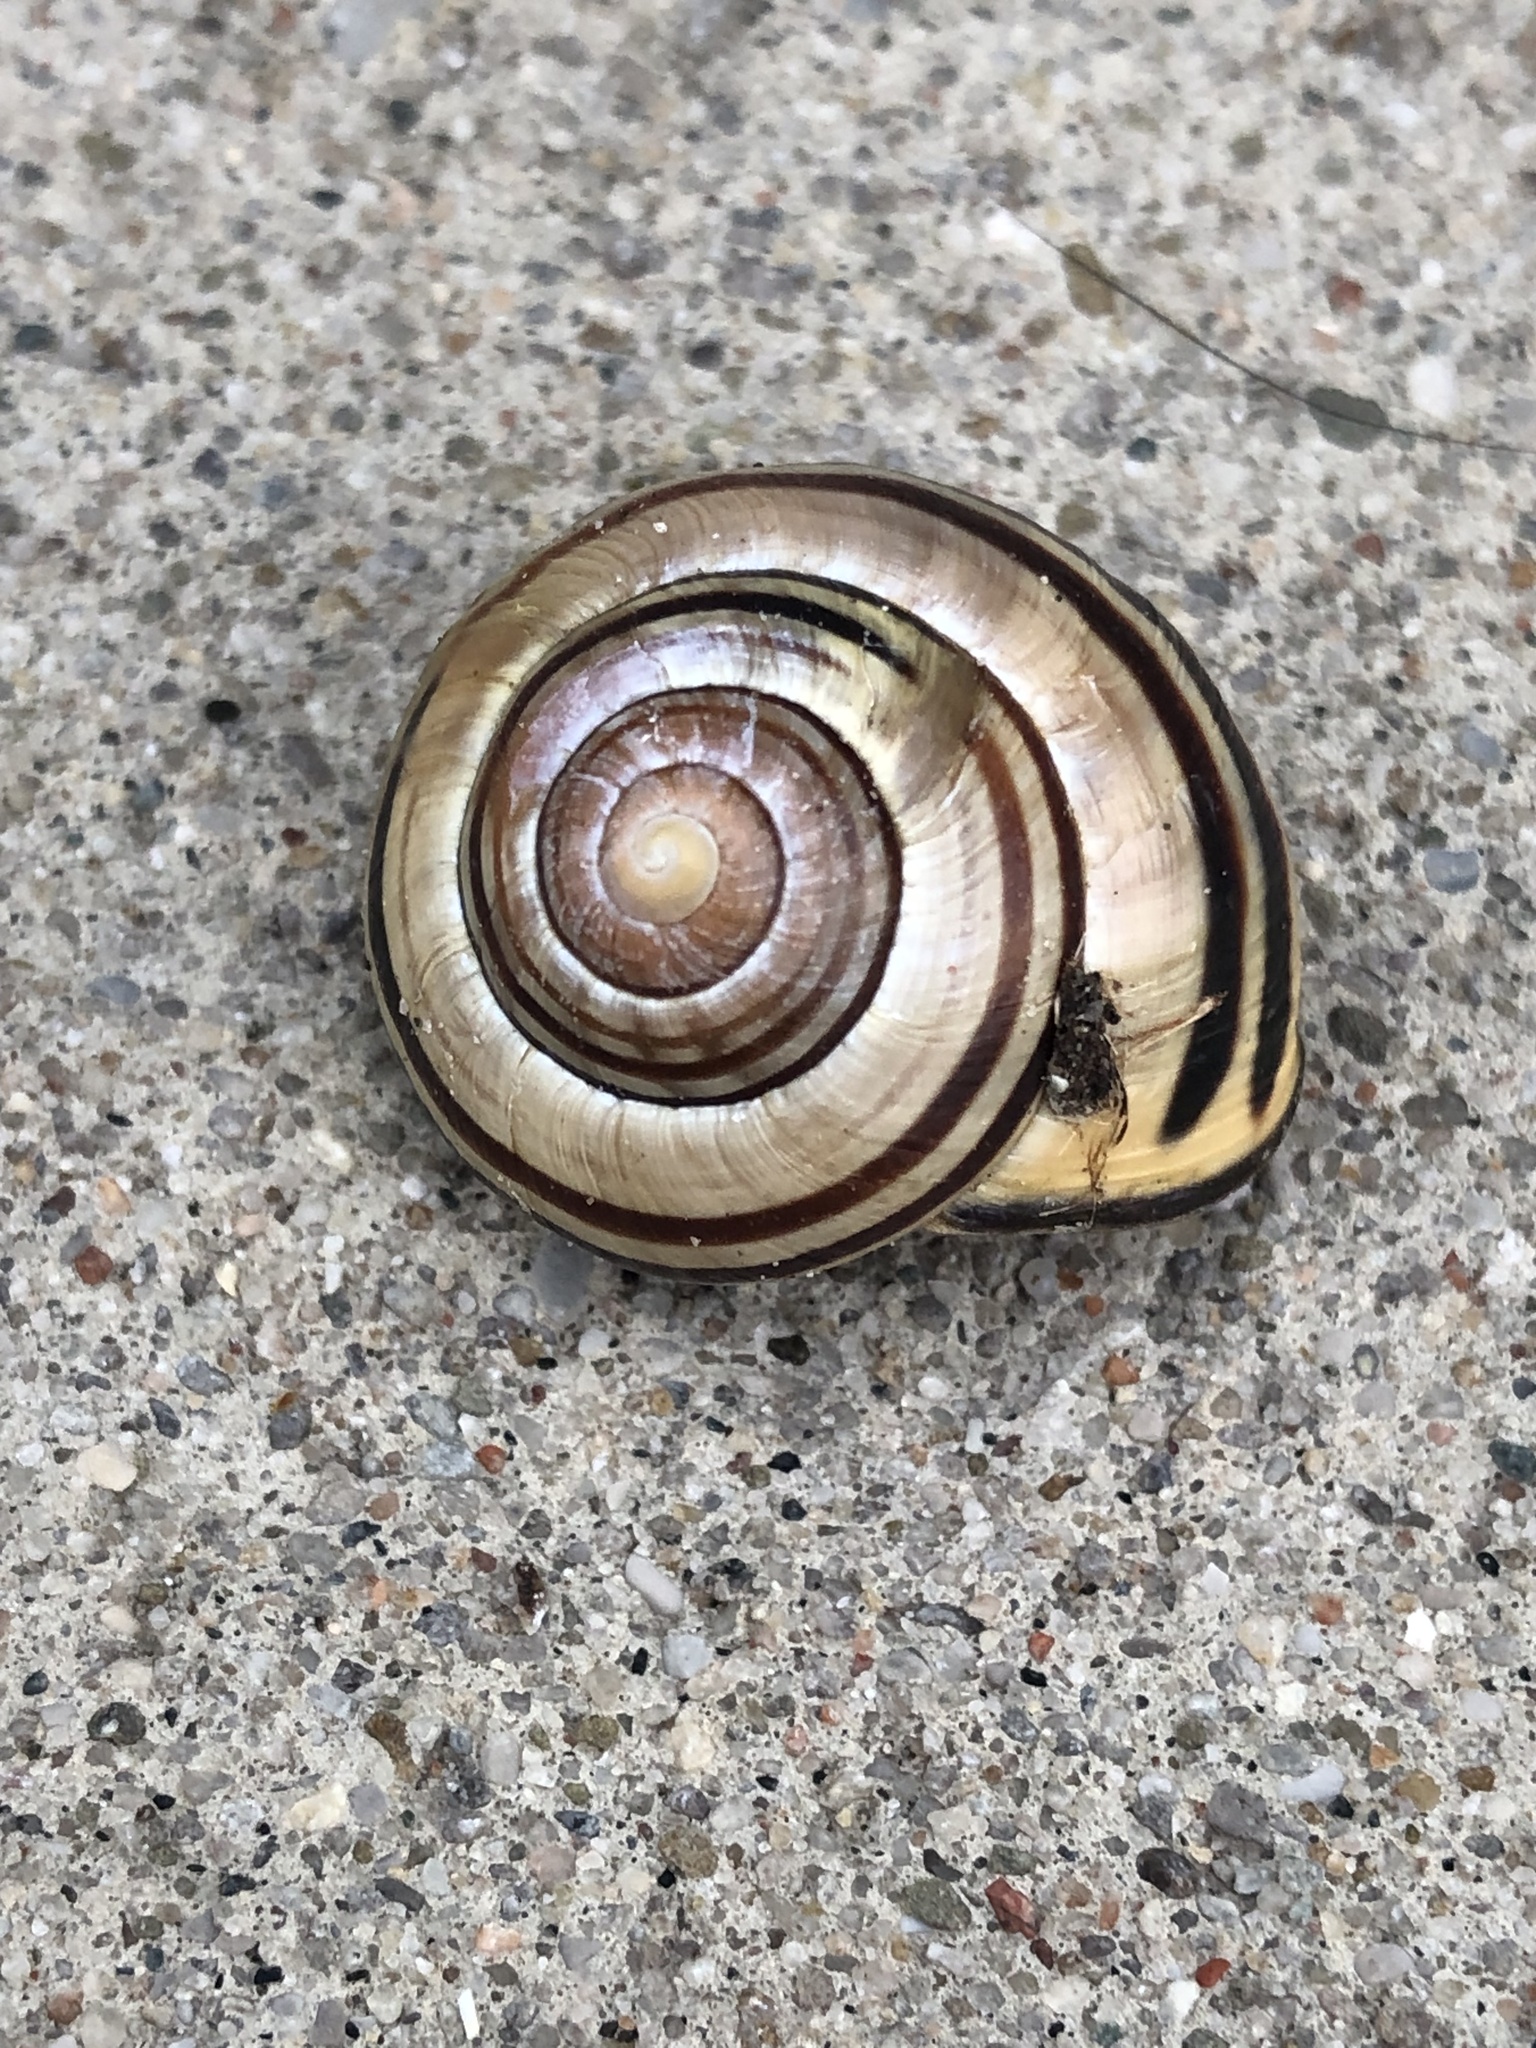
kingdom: Animalia
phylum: Mollusca
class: Gastropoda
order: Stylommatophora
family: Helicidae
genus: Cepaea
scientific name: Cepaea nemoralis
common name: Grovesnail
